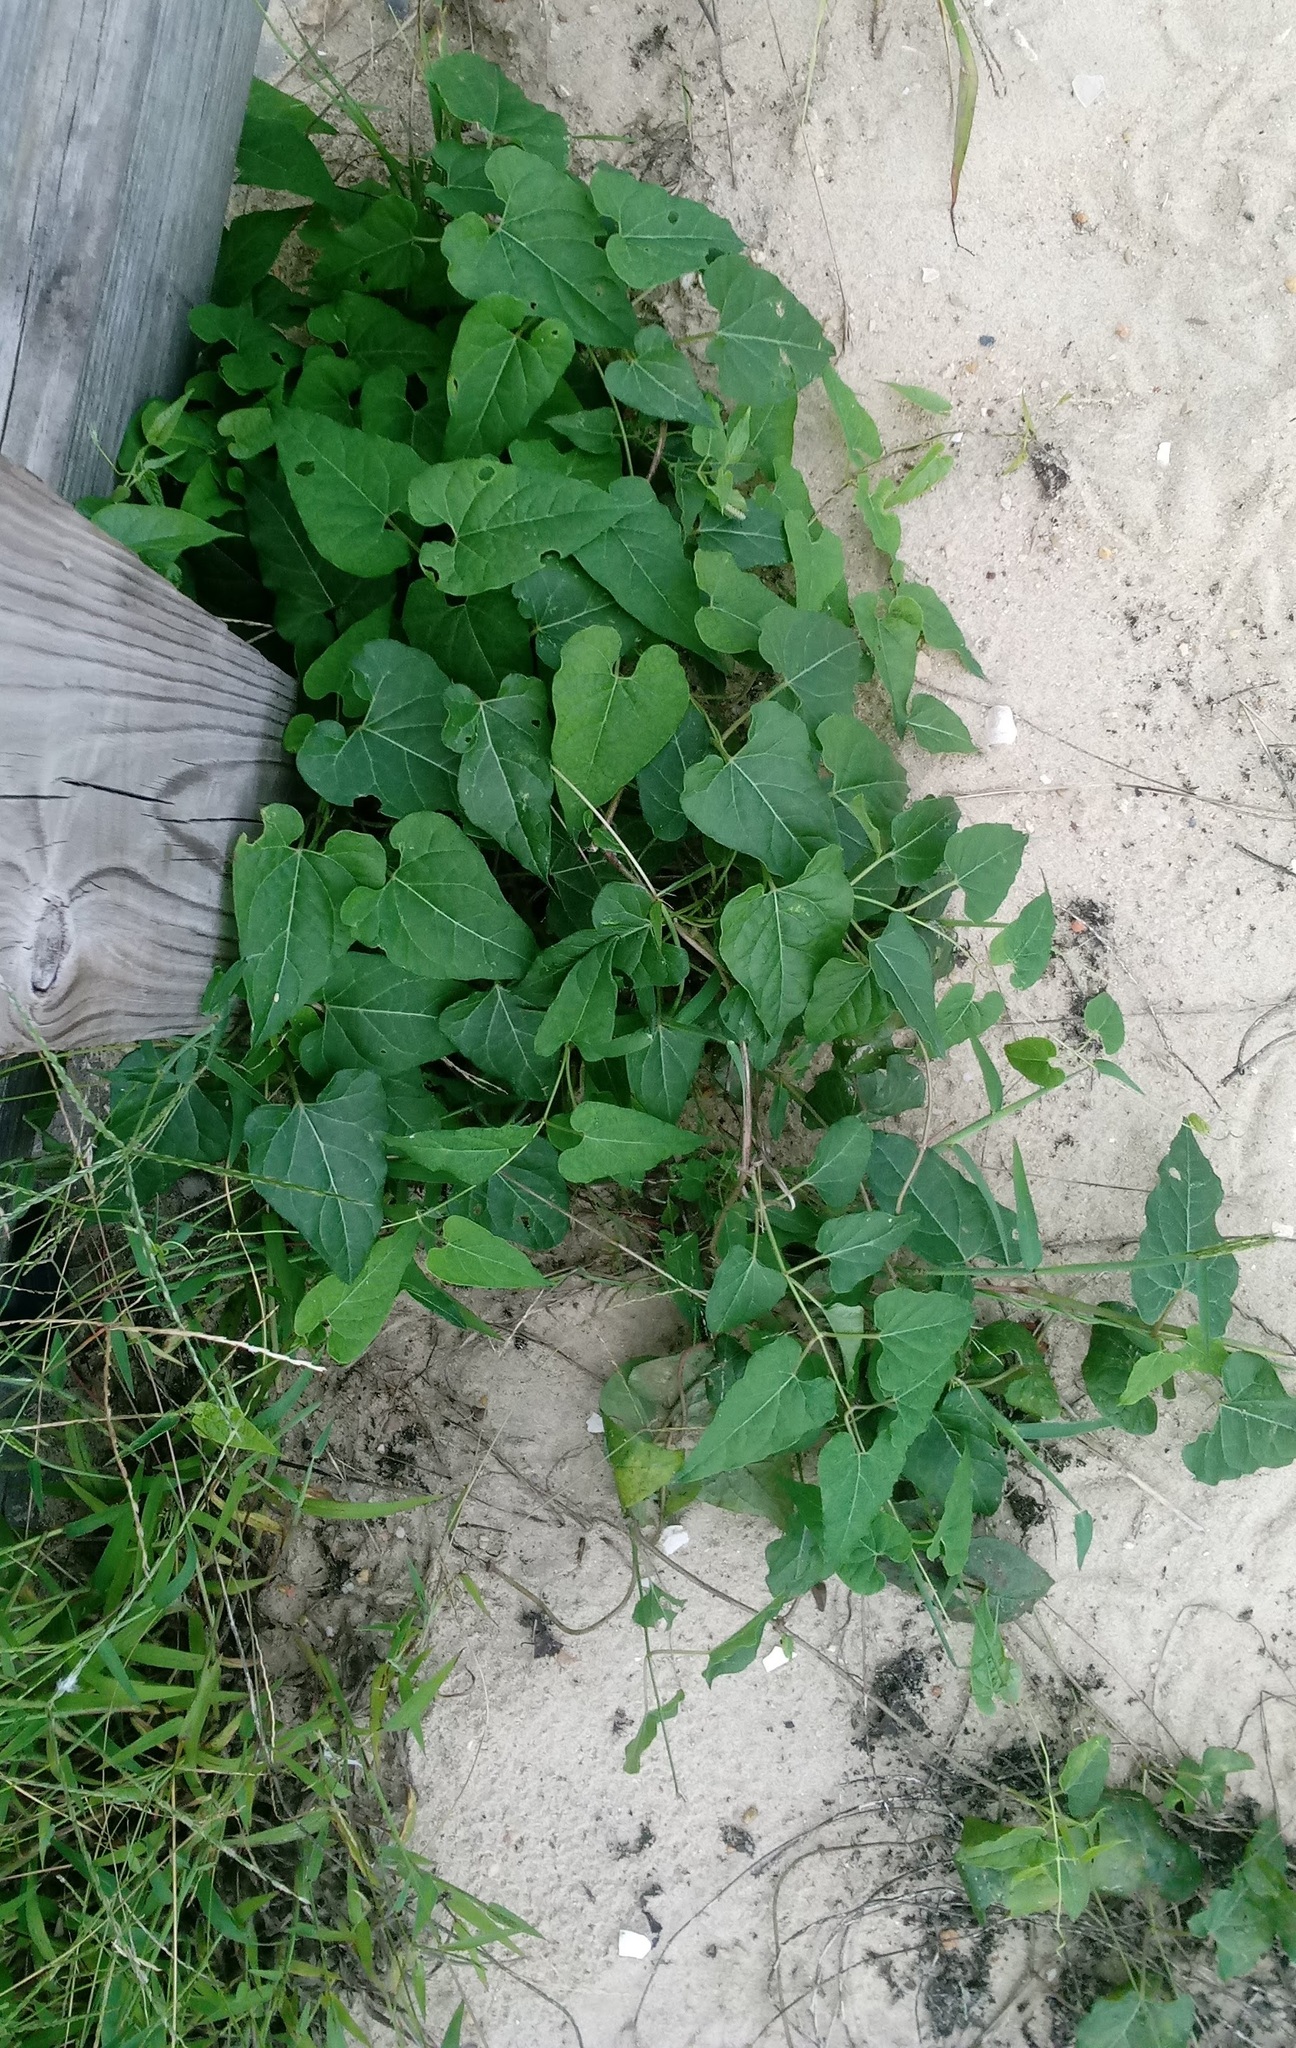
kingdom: Plantae
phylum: Tracheophyta
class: Magnoliopsida
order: Gentianales
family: Apocynaceae
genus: Cynanchum
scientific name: Cynanchum laeve
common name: Sandvine
